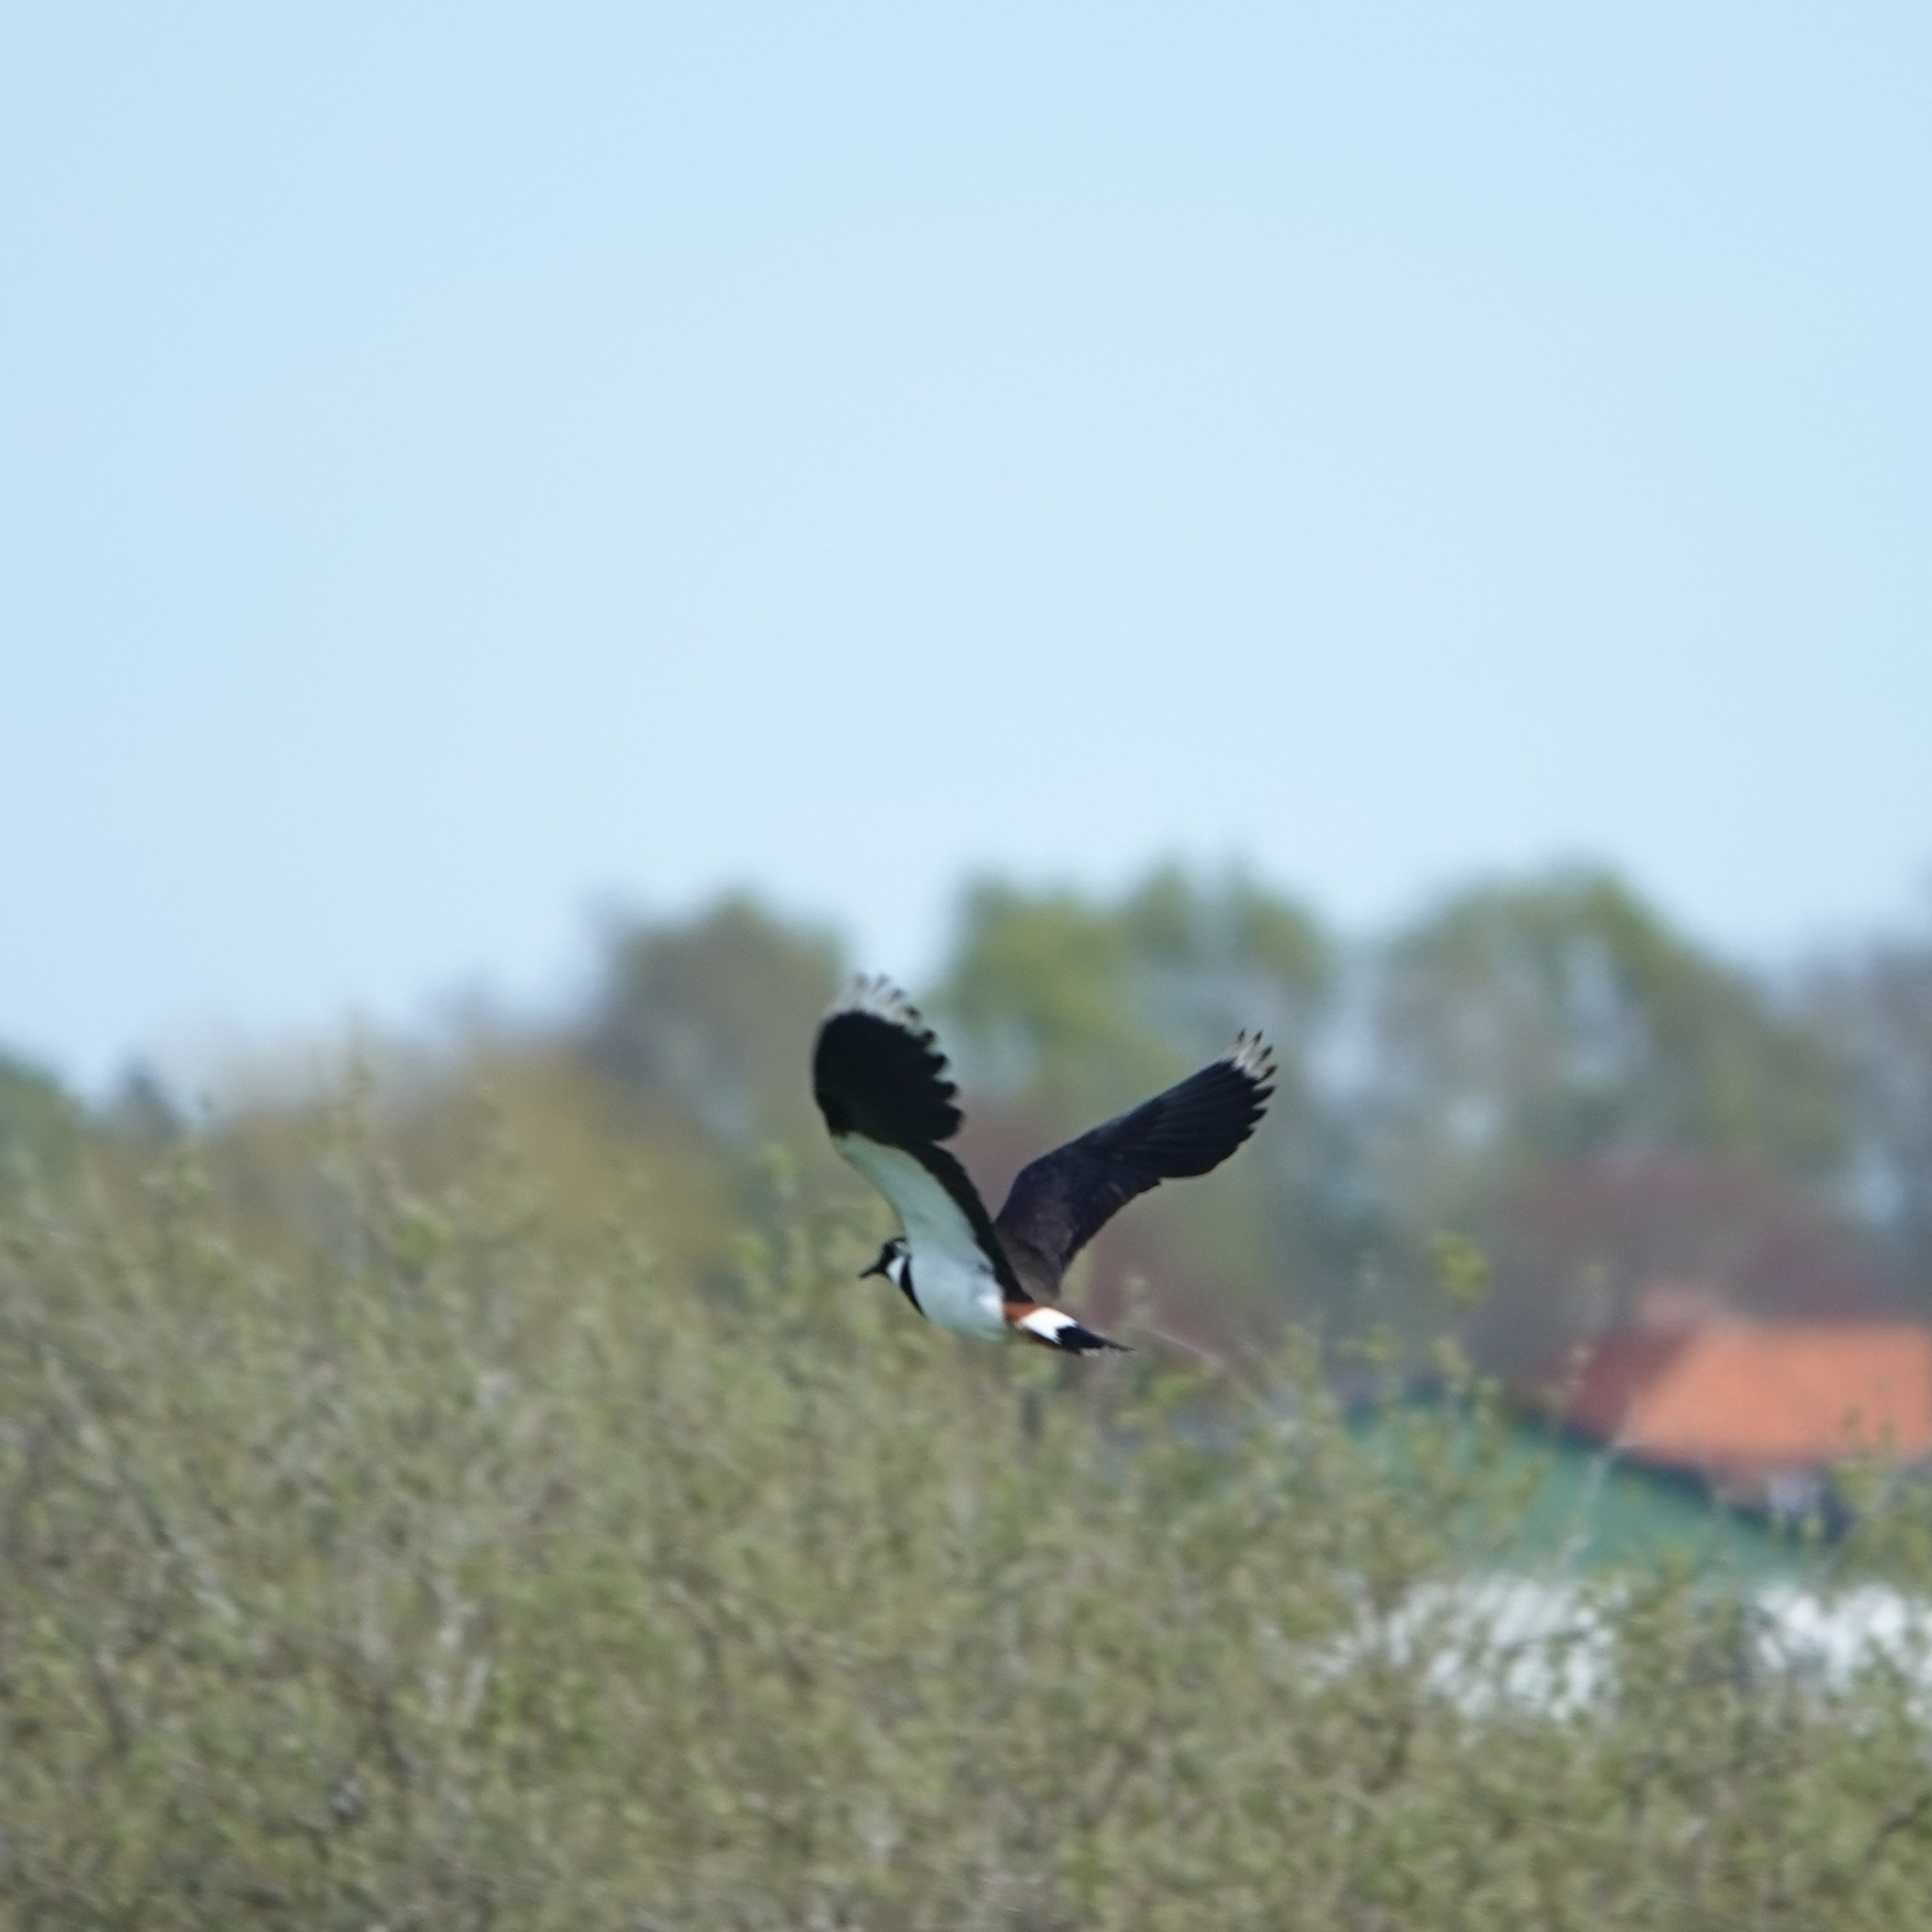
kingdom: Animalia
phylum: Chordata
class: Aves
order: Charadriiformes
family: Charadriidae
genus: Vanellus
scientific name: Vanellus vanellus
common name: Northern lapwing
